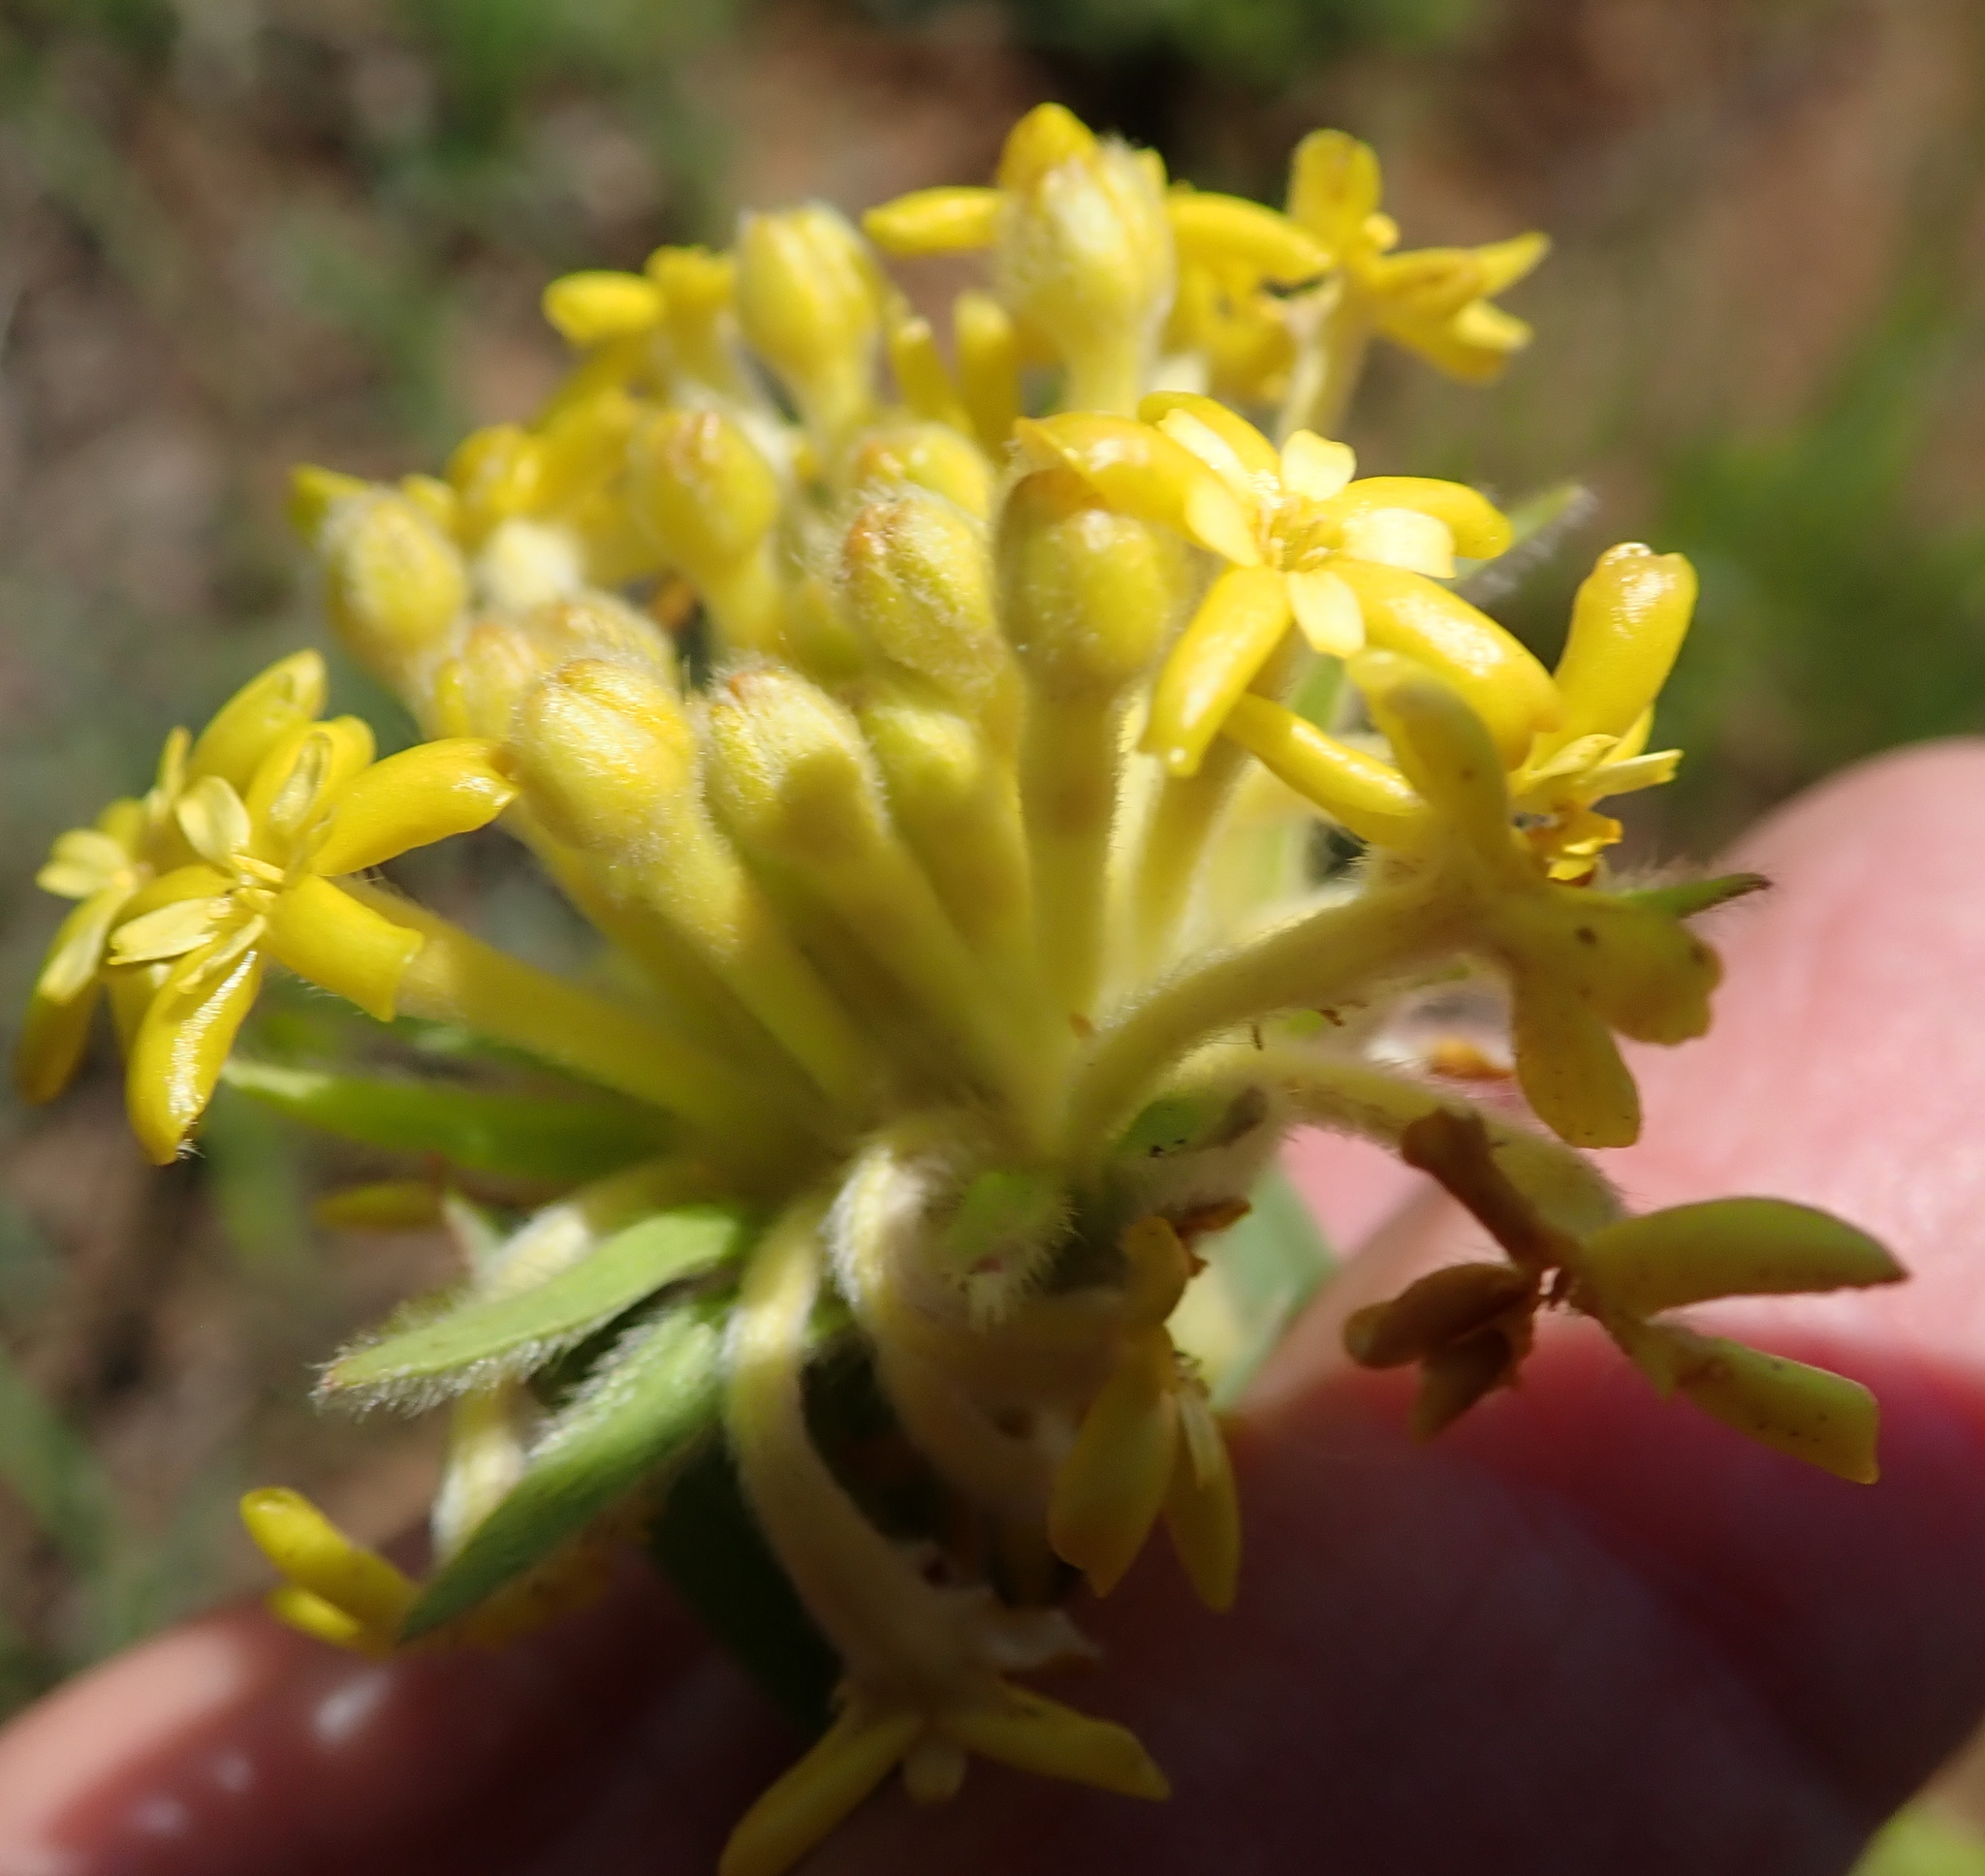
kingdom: Plantae
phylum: Tracheophyta
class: Magnoliopsida
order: Malvales
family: Thymelaeaceae
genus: Lasiosiphon
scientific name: Lasiosiphon polyanthus
